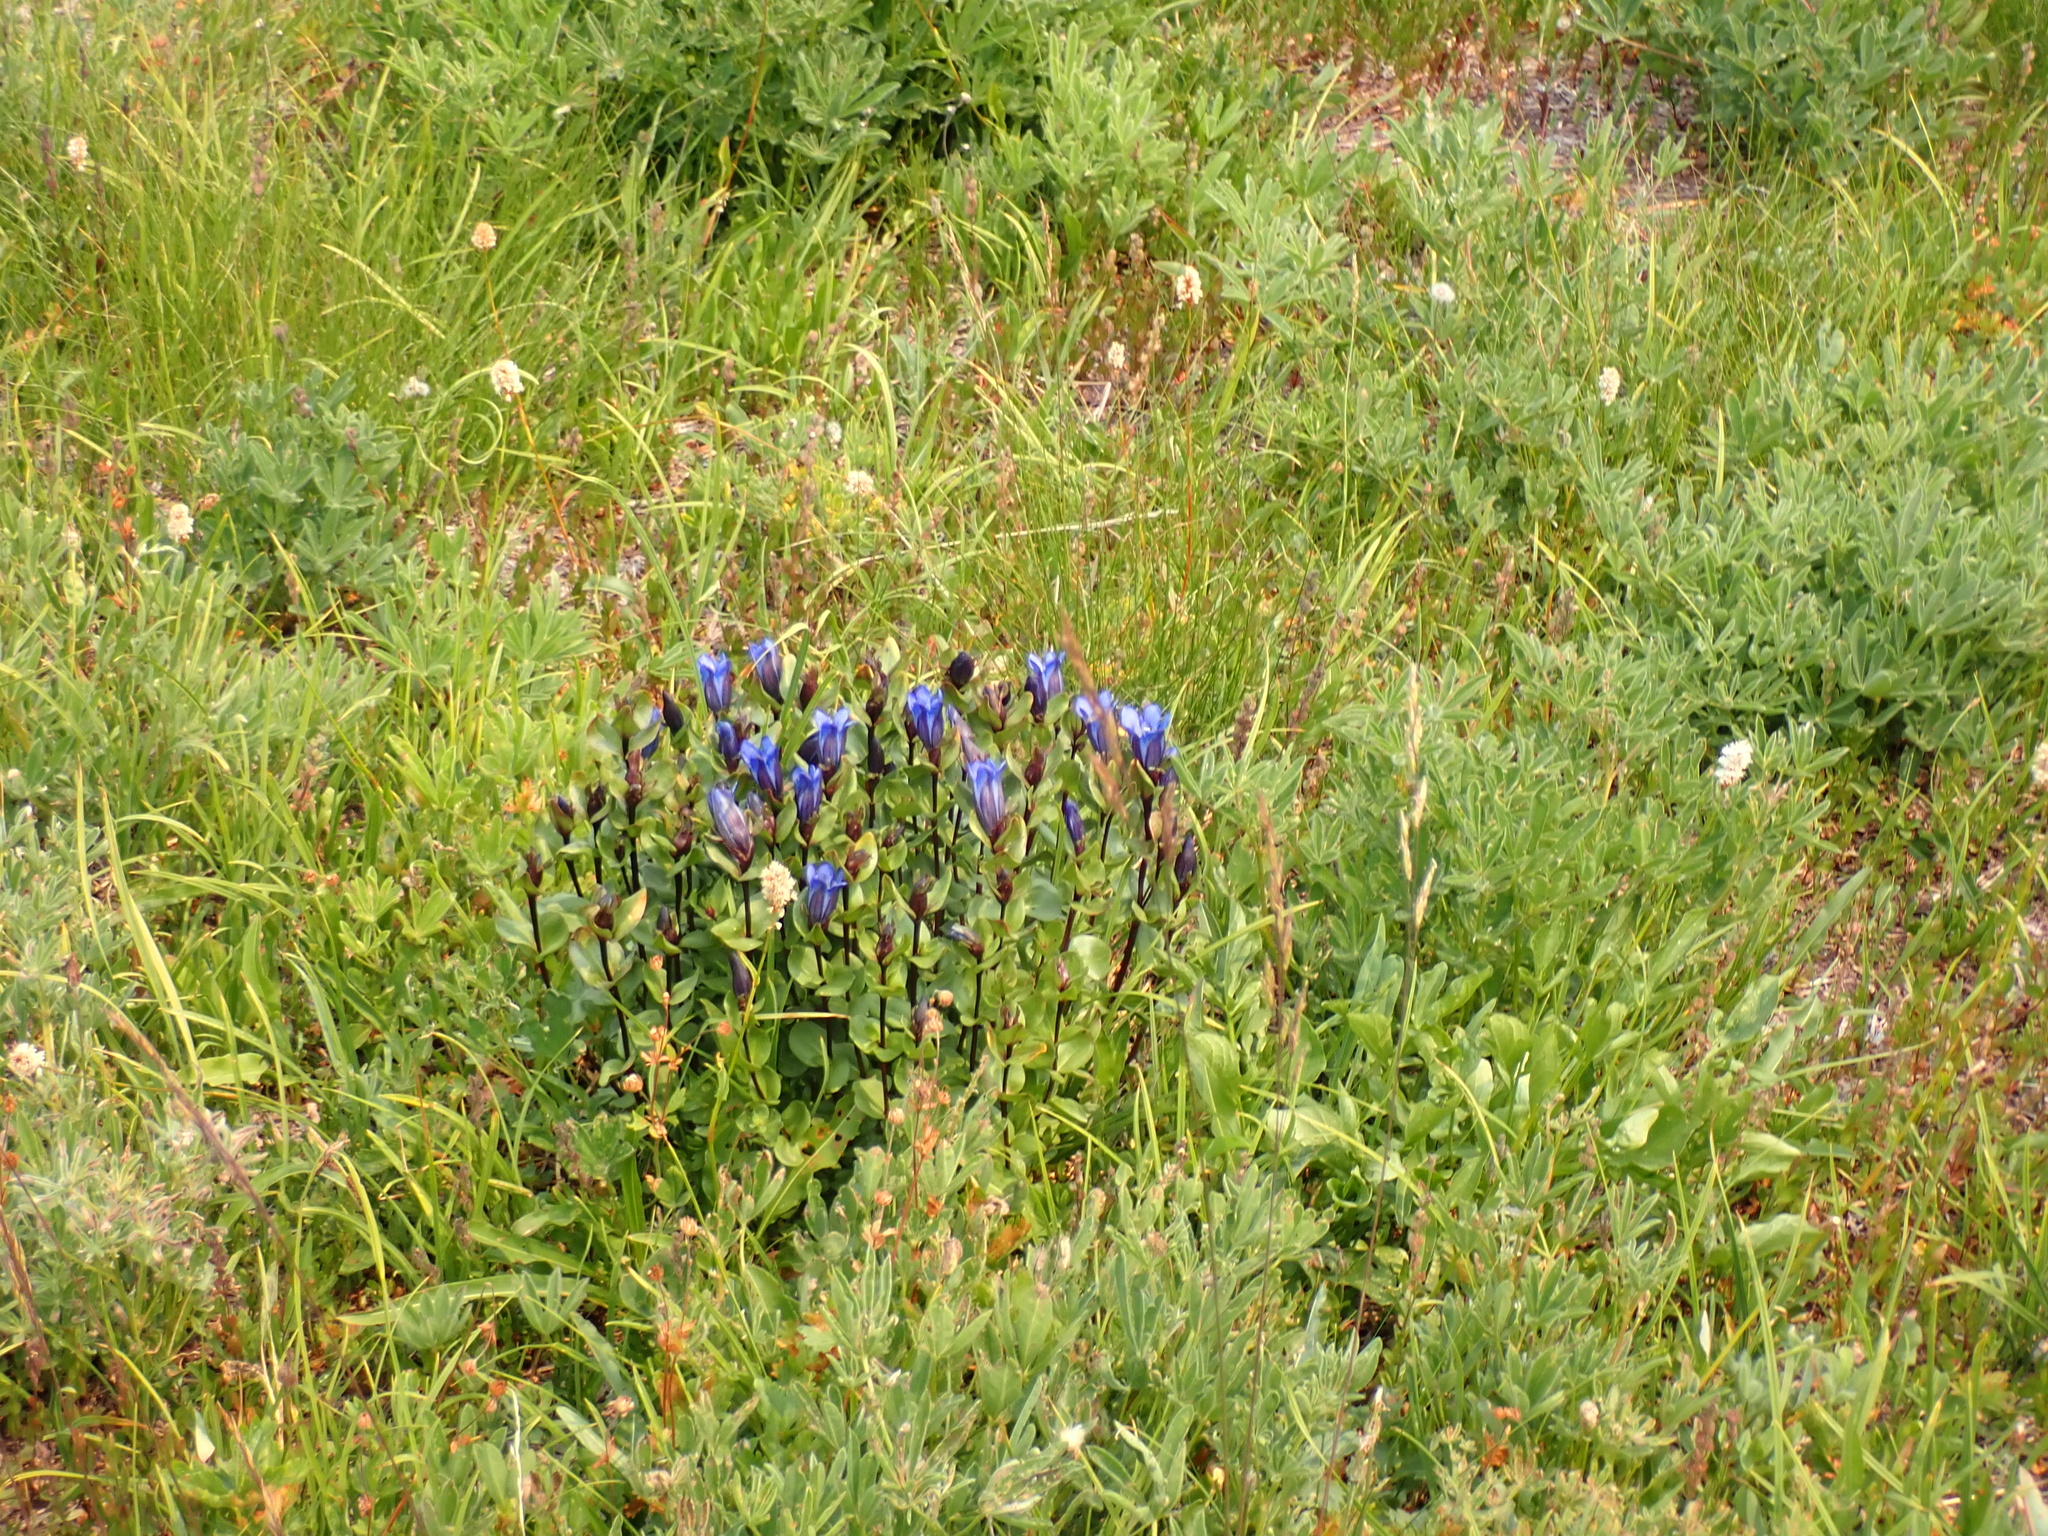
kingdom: Plantae
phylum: Tracheophyta
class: Magnoliopsida
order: Gentianales
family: Gentianaceae
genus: Gentiana
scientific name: Gentiana calycosa
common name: Rainier pleated gentian
